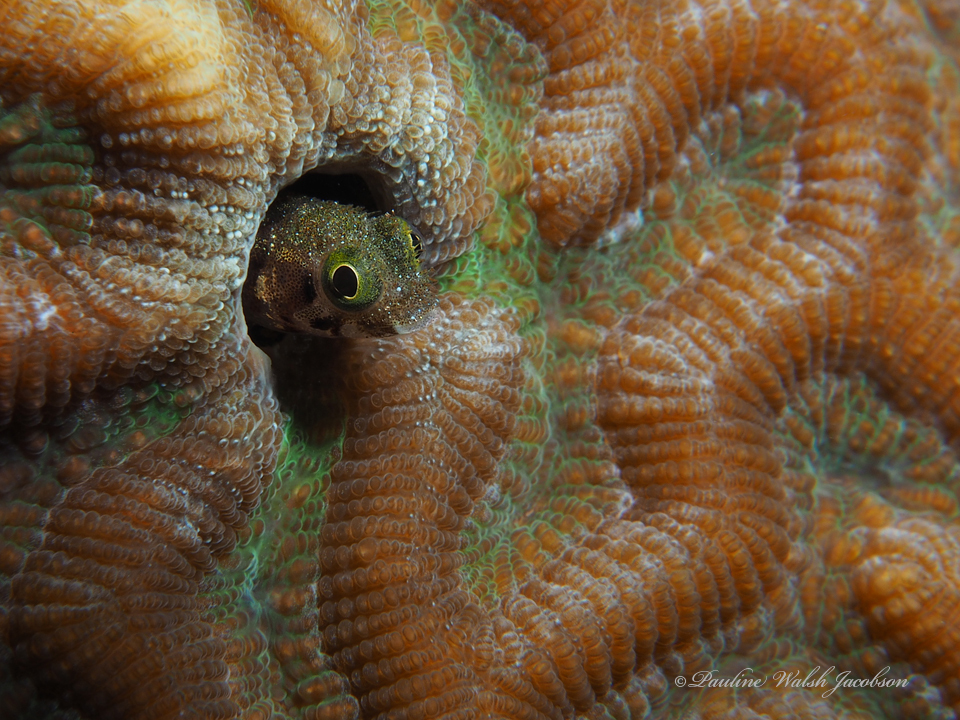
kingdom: Animalia
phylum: Chordata
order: Perciformes
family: Chaenopsidae
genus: Acanthemblemaria
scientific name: Acanthemblemaria spinosa
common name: Spinyhead blenny
